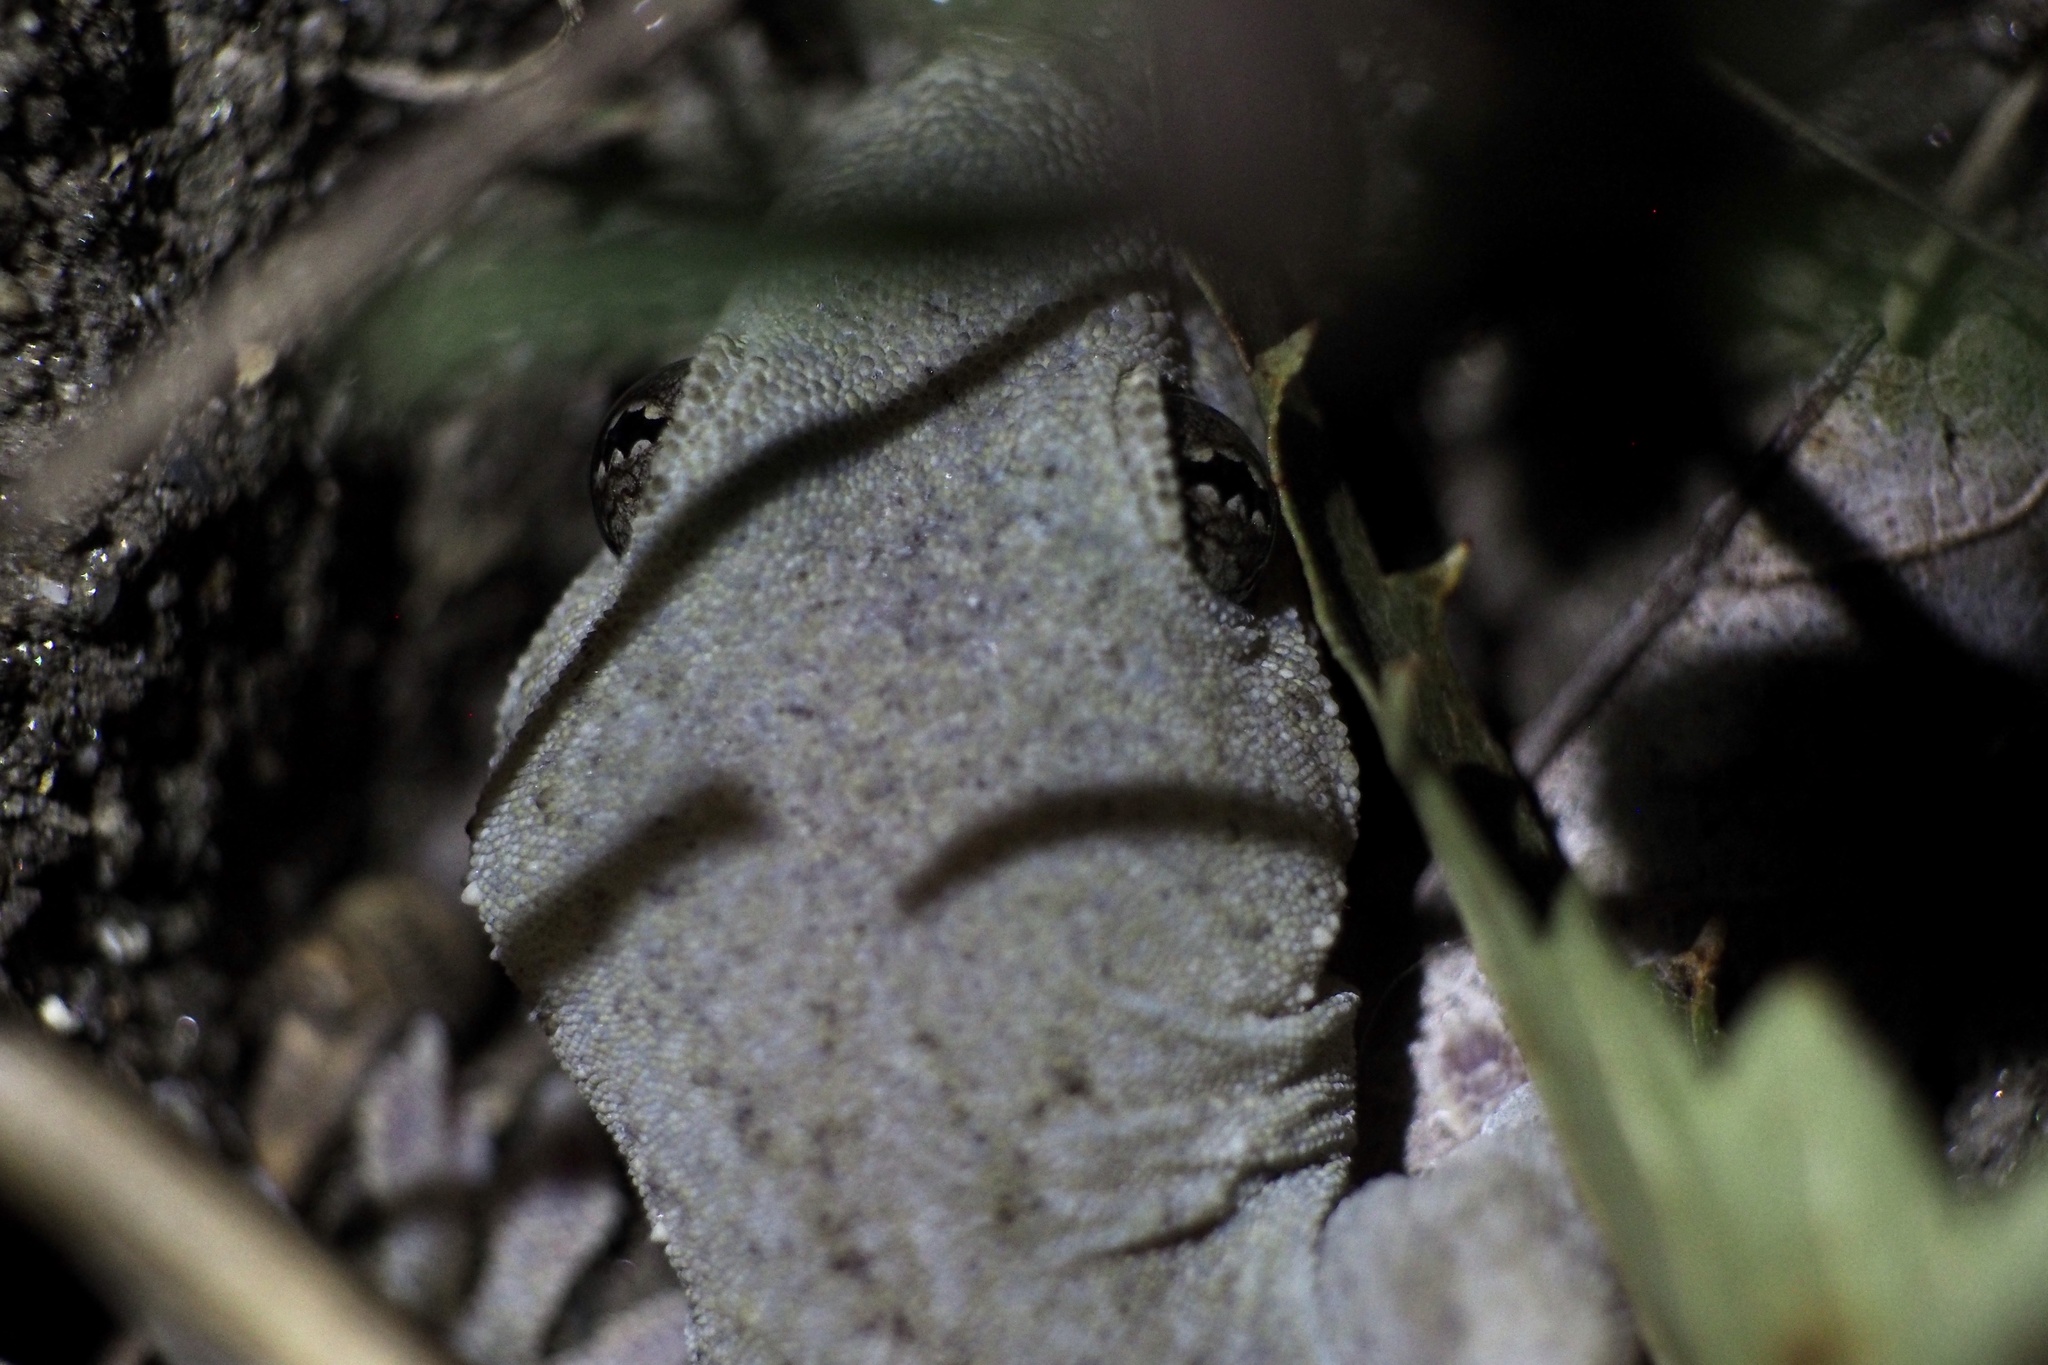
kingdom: Animalia
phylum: Chordata
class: Squamata
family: Gekkonidae
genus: Gekko
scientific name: Gekko japonicus
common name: Schlegel's japanese gecko
